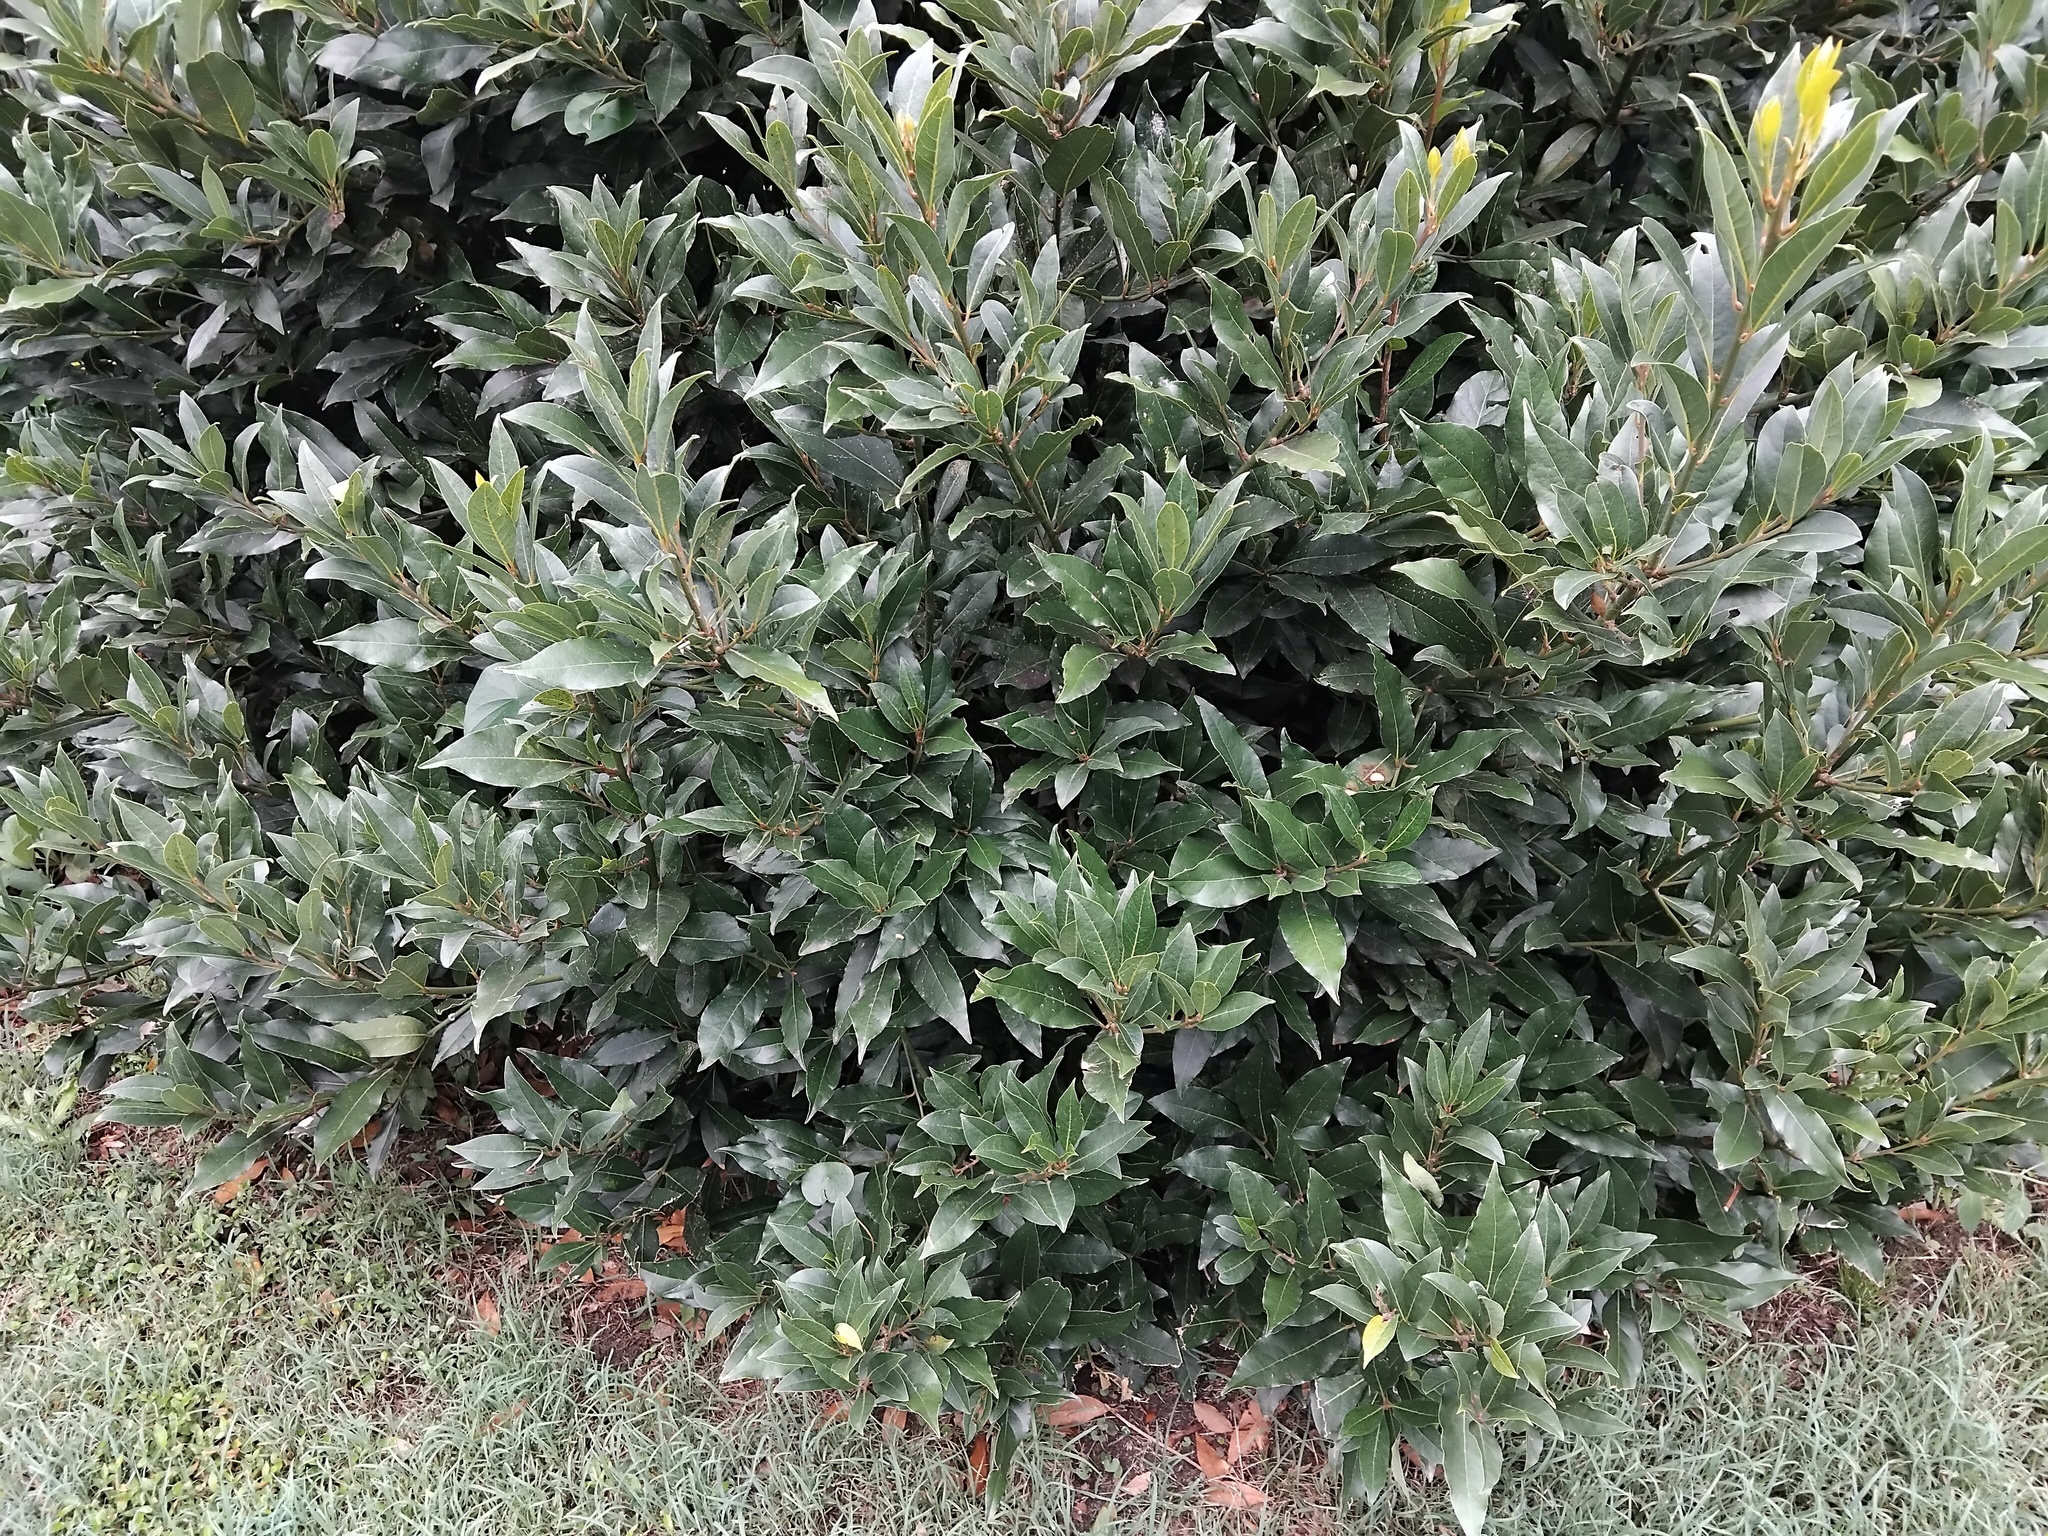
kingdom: Animalia
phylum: Arthropoda
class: Arachnida
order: Araneae
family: Araneidae
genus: Poecilopachys
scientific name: Poecilopachys australasia
